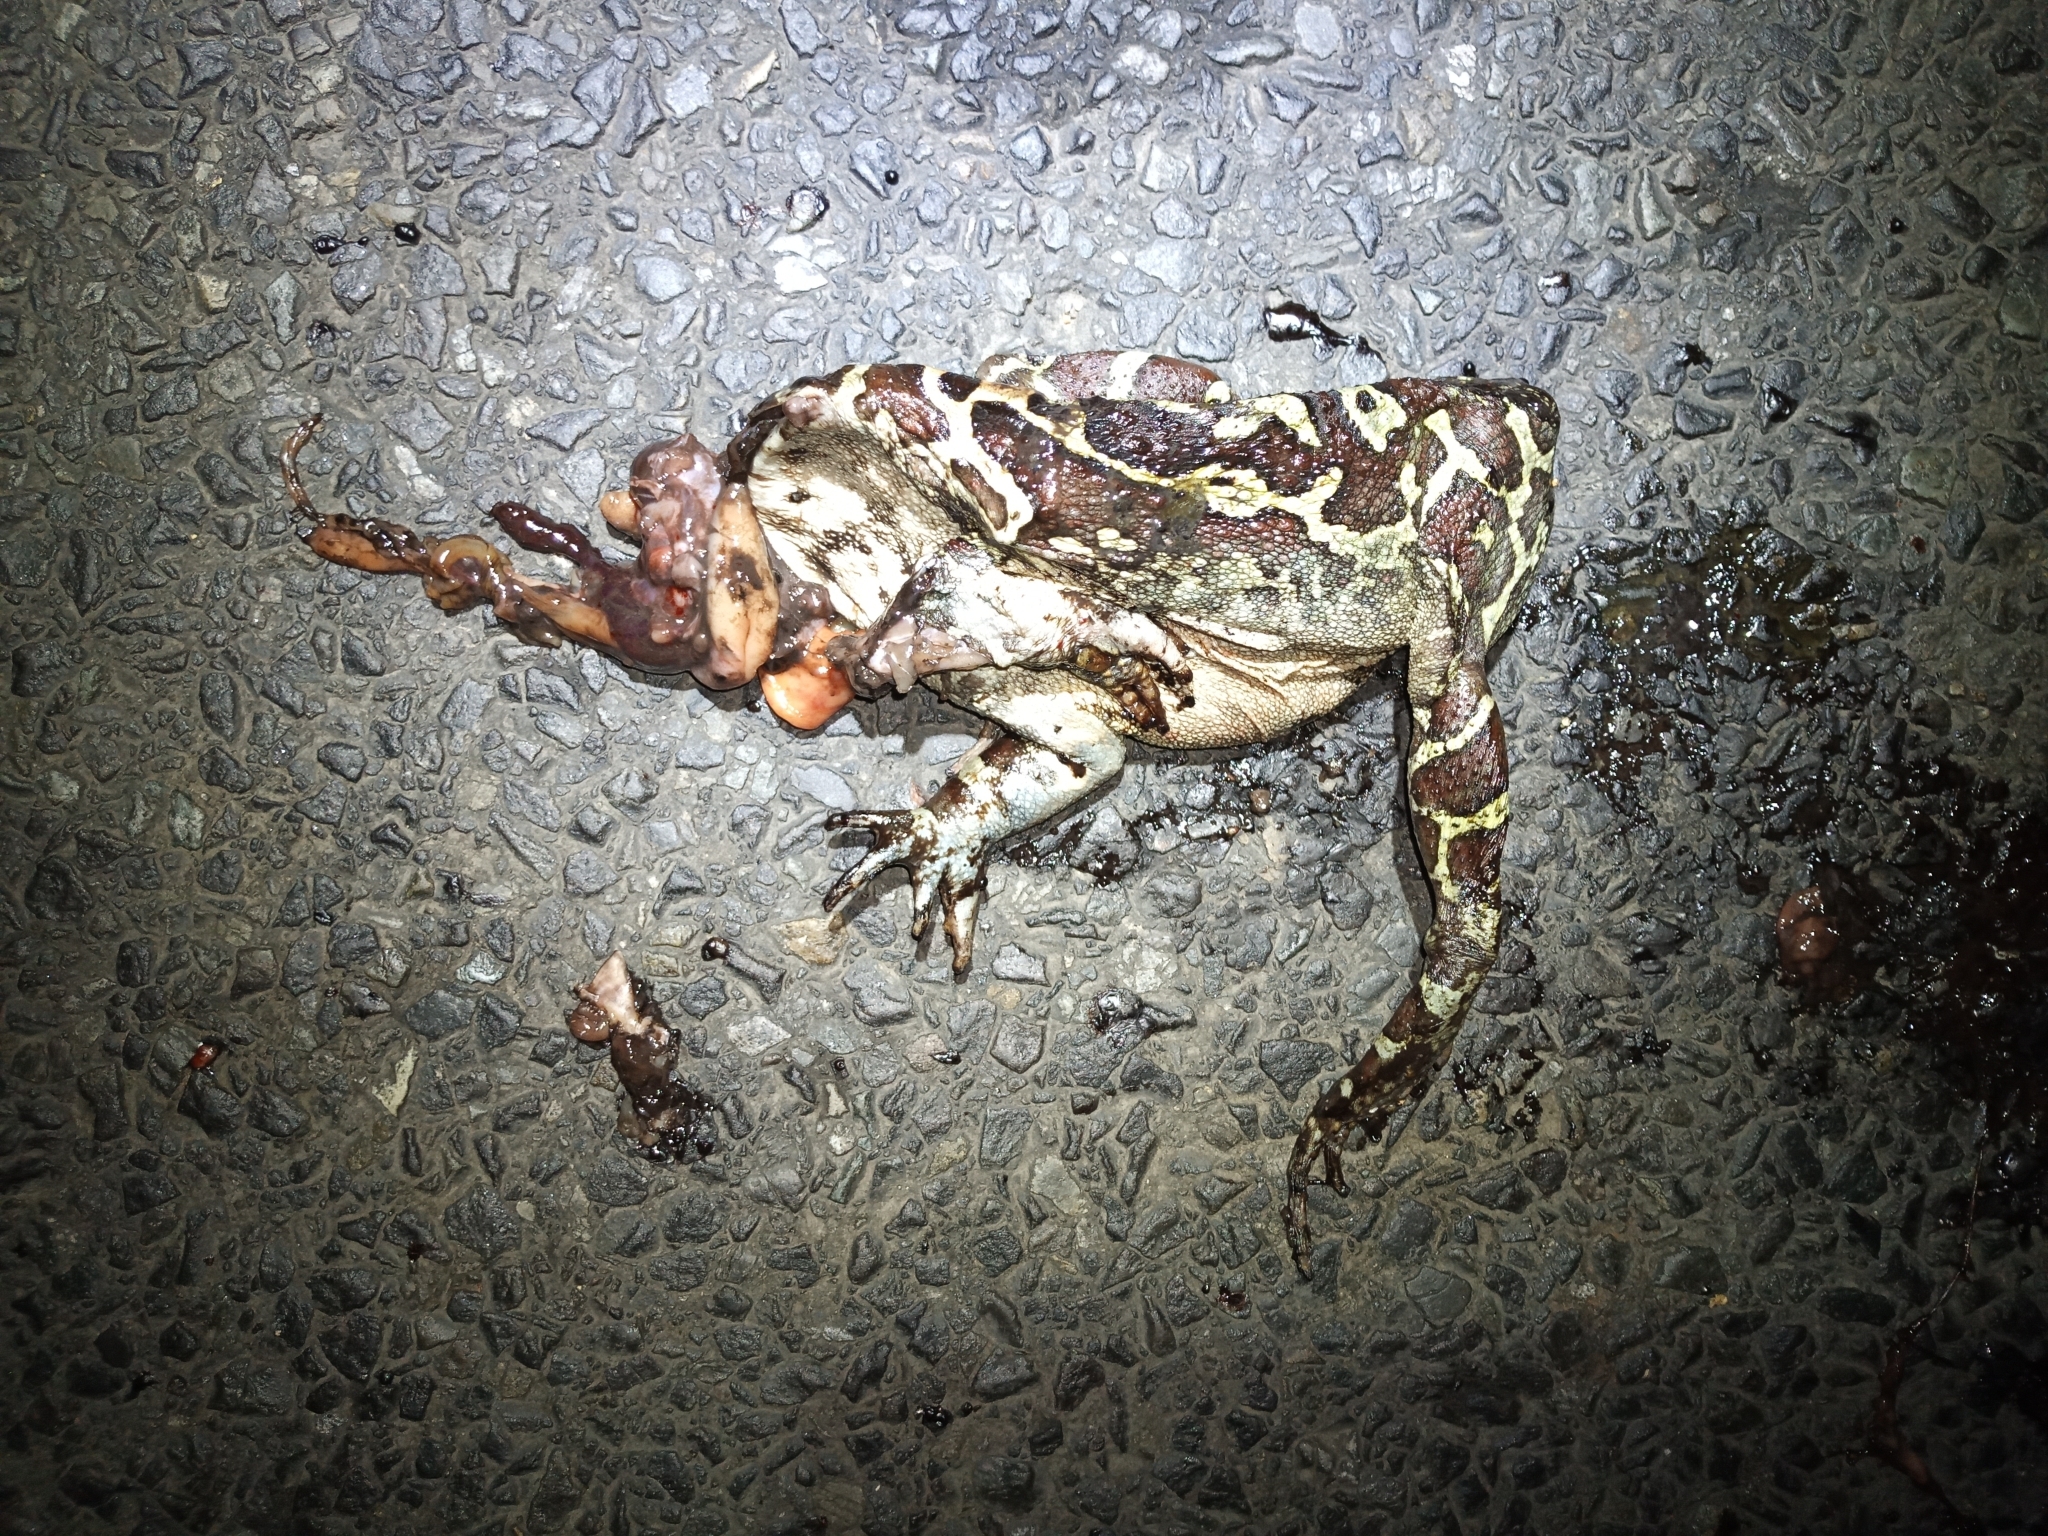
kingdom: Animalia
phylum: Chordata
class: Amphibia
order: Anura
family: Bufonidae
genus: Sclerophrys
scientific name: Sclerophrys pantherina
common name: Panther toad
